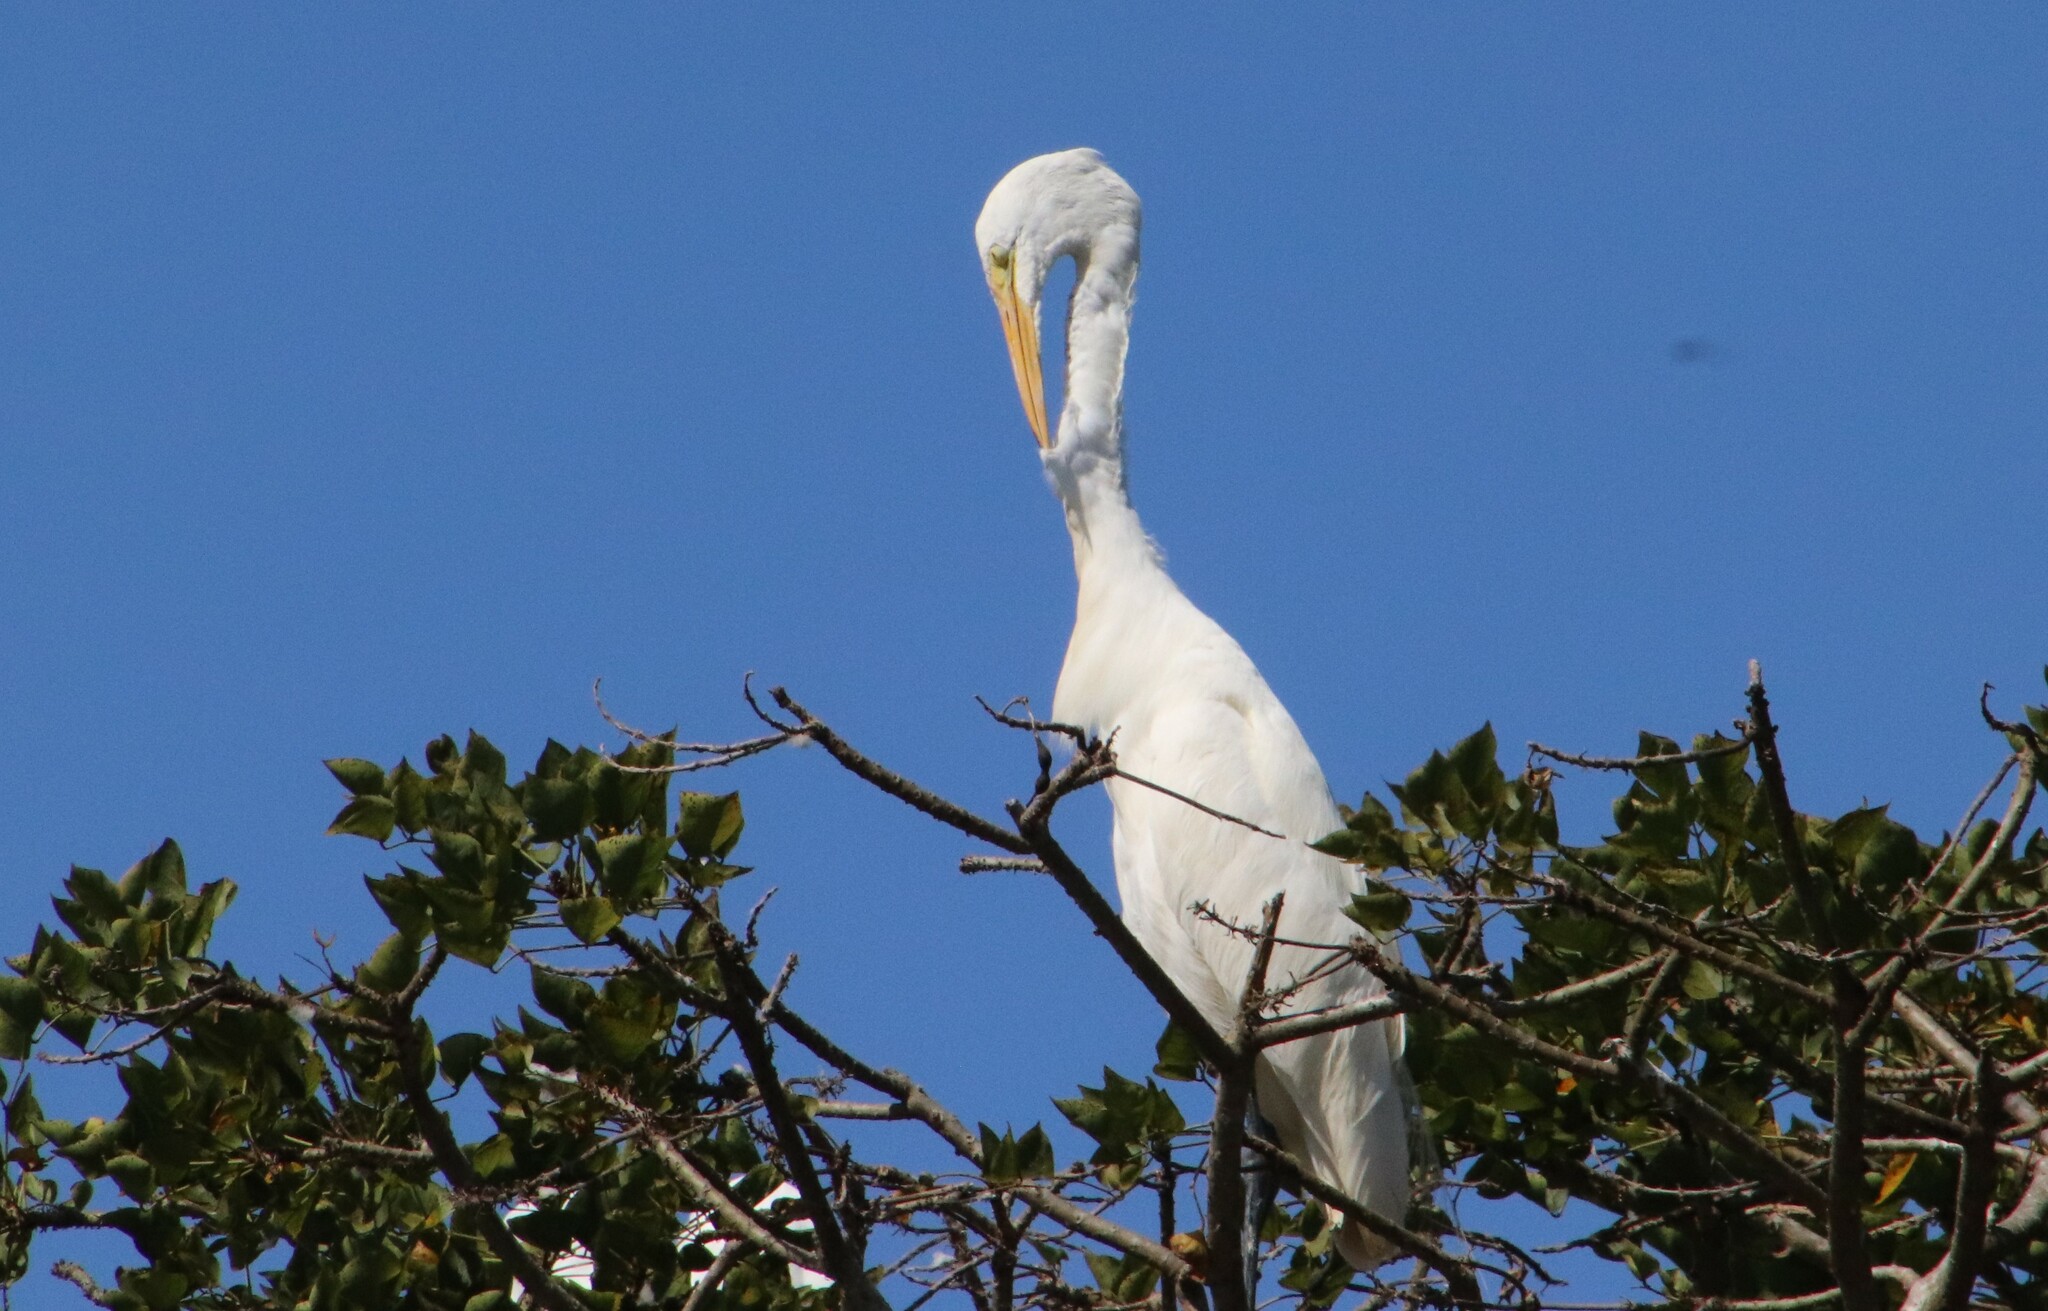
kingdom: Animalia
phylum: Chordata
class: Aves
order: Pelecaniformes
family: Ardeidae
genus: Ardea
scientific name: Ardea alba
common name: Great egret
